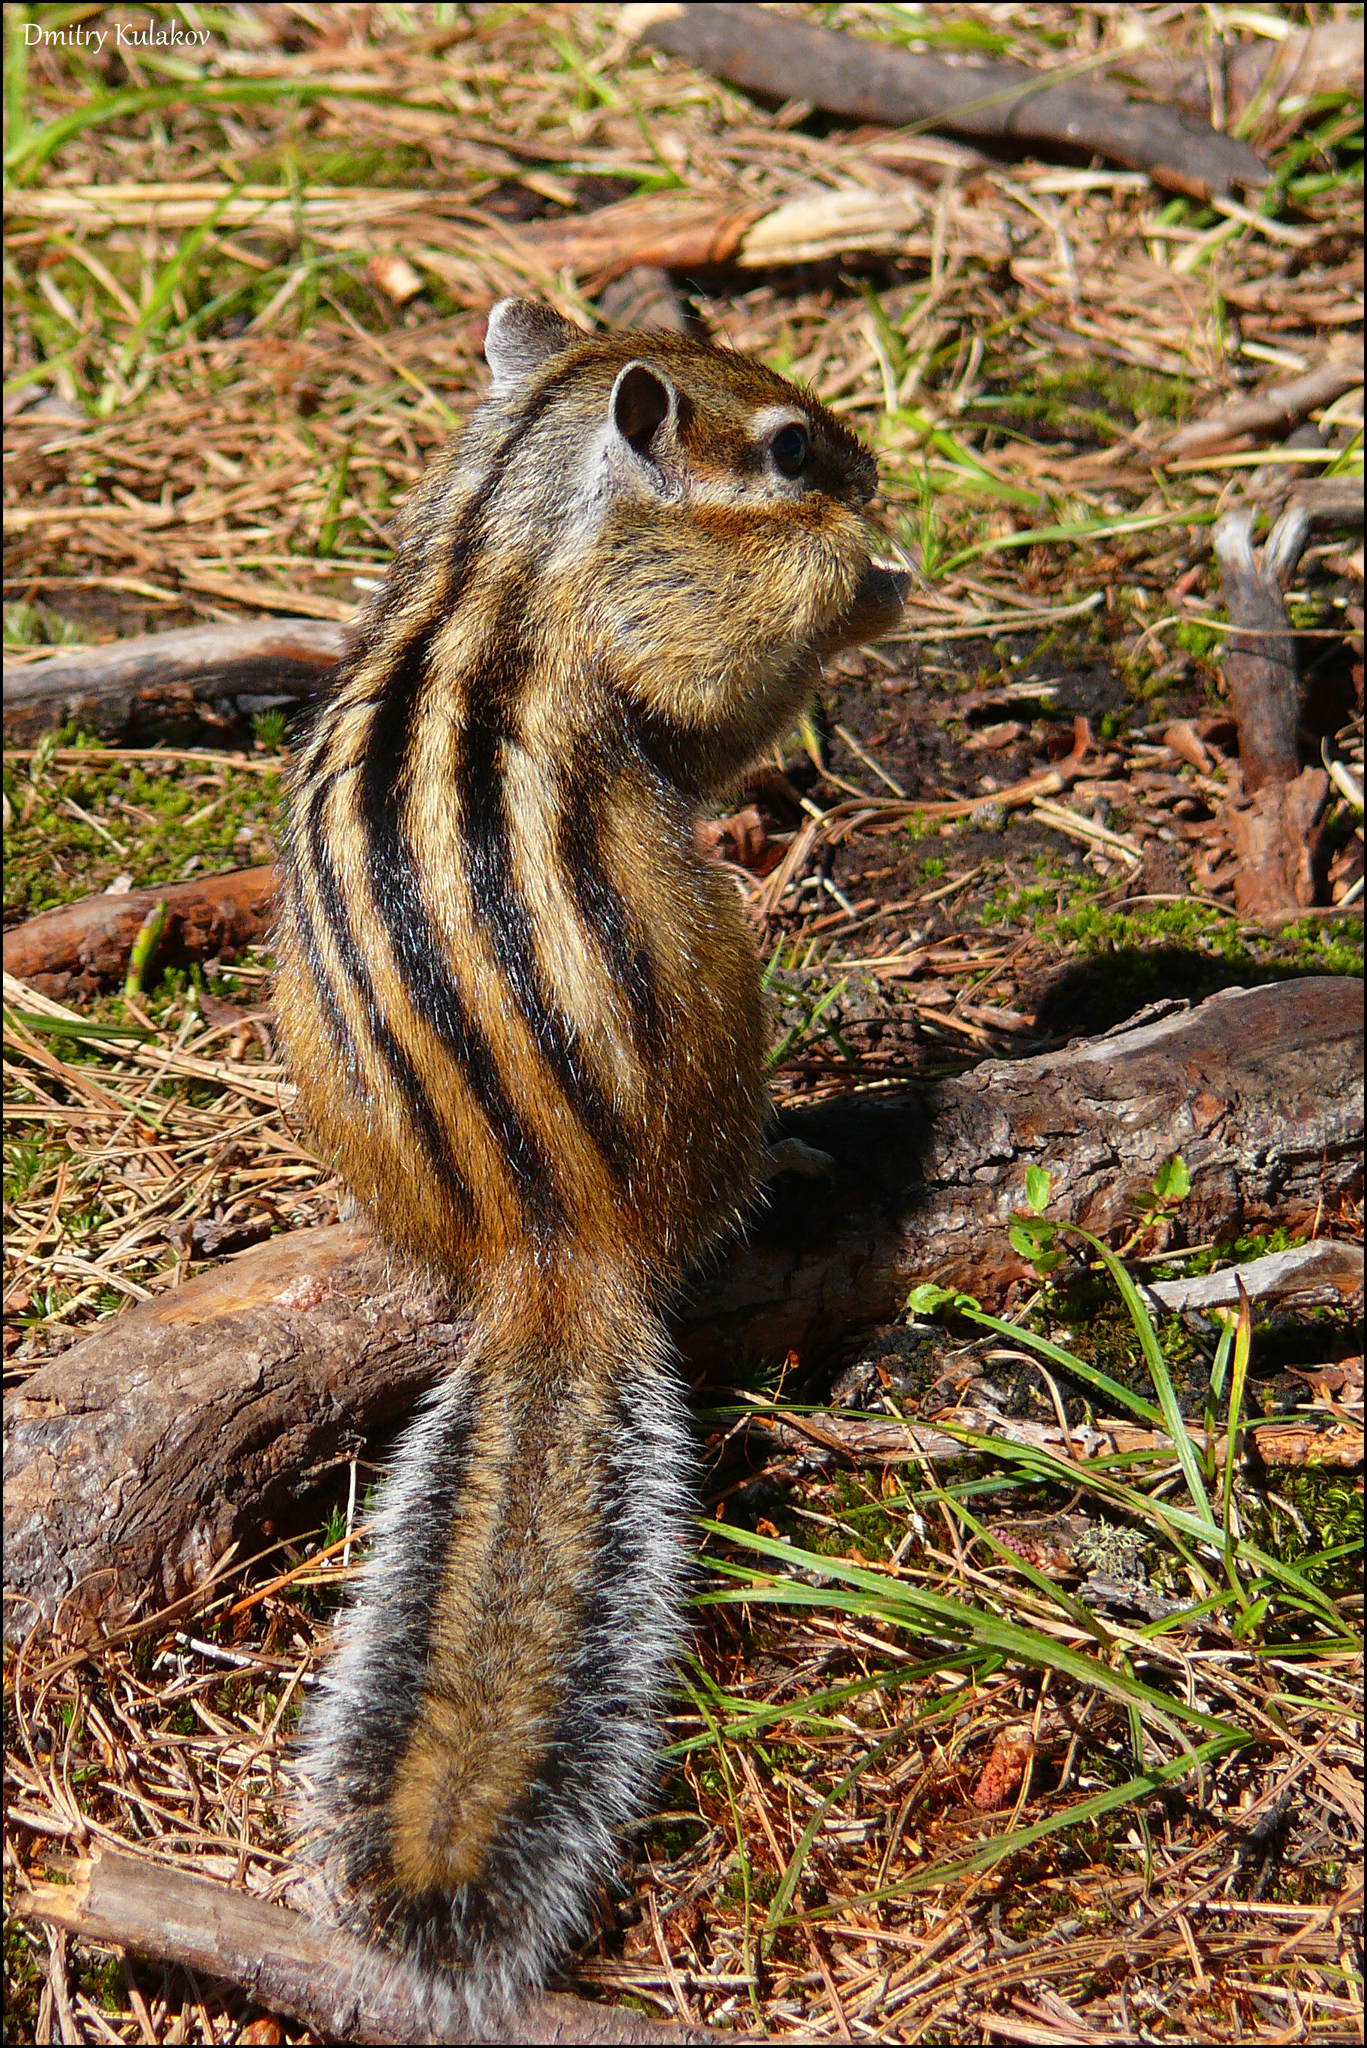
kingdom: Animalia
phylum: Chordata
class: Mammalia
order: Rodentia
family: Sciuridae
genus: Tamias
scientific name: Tamias sibiricus
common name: Siberian chipmunk
